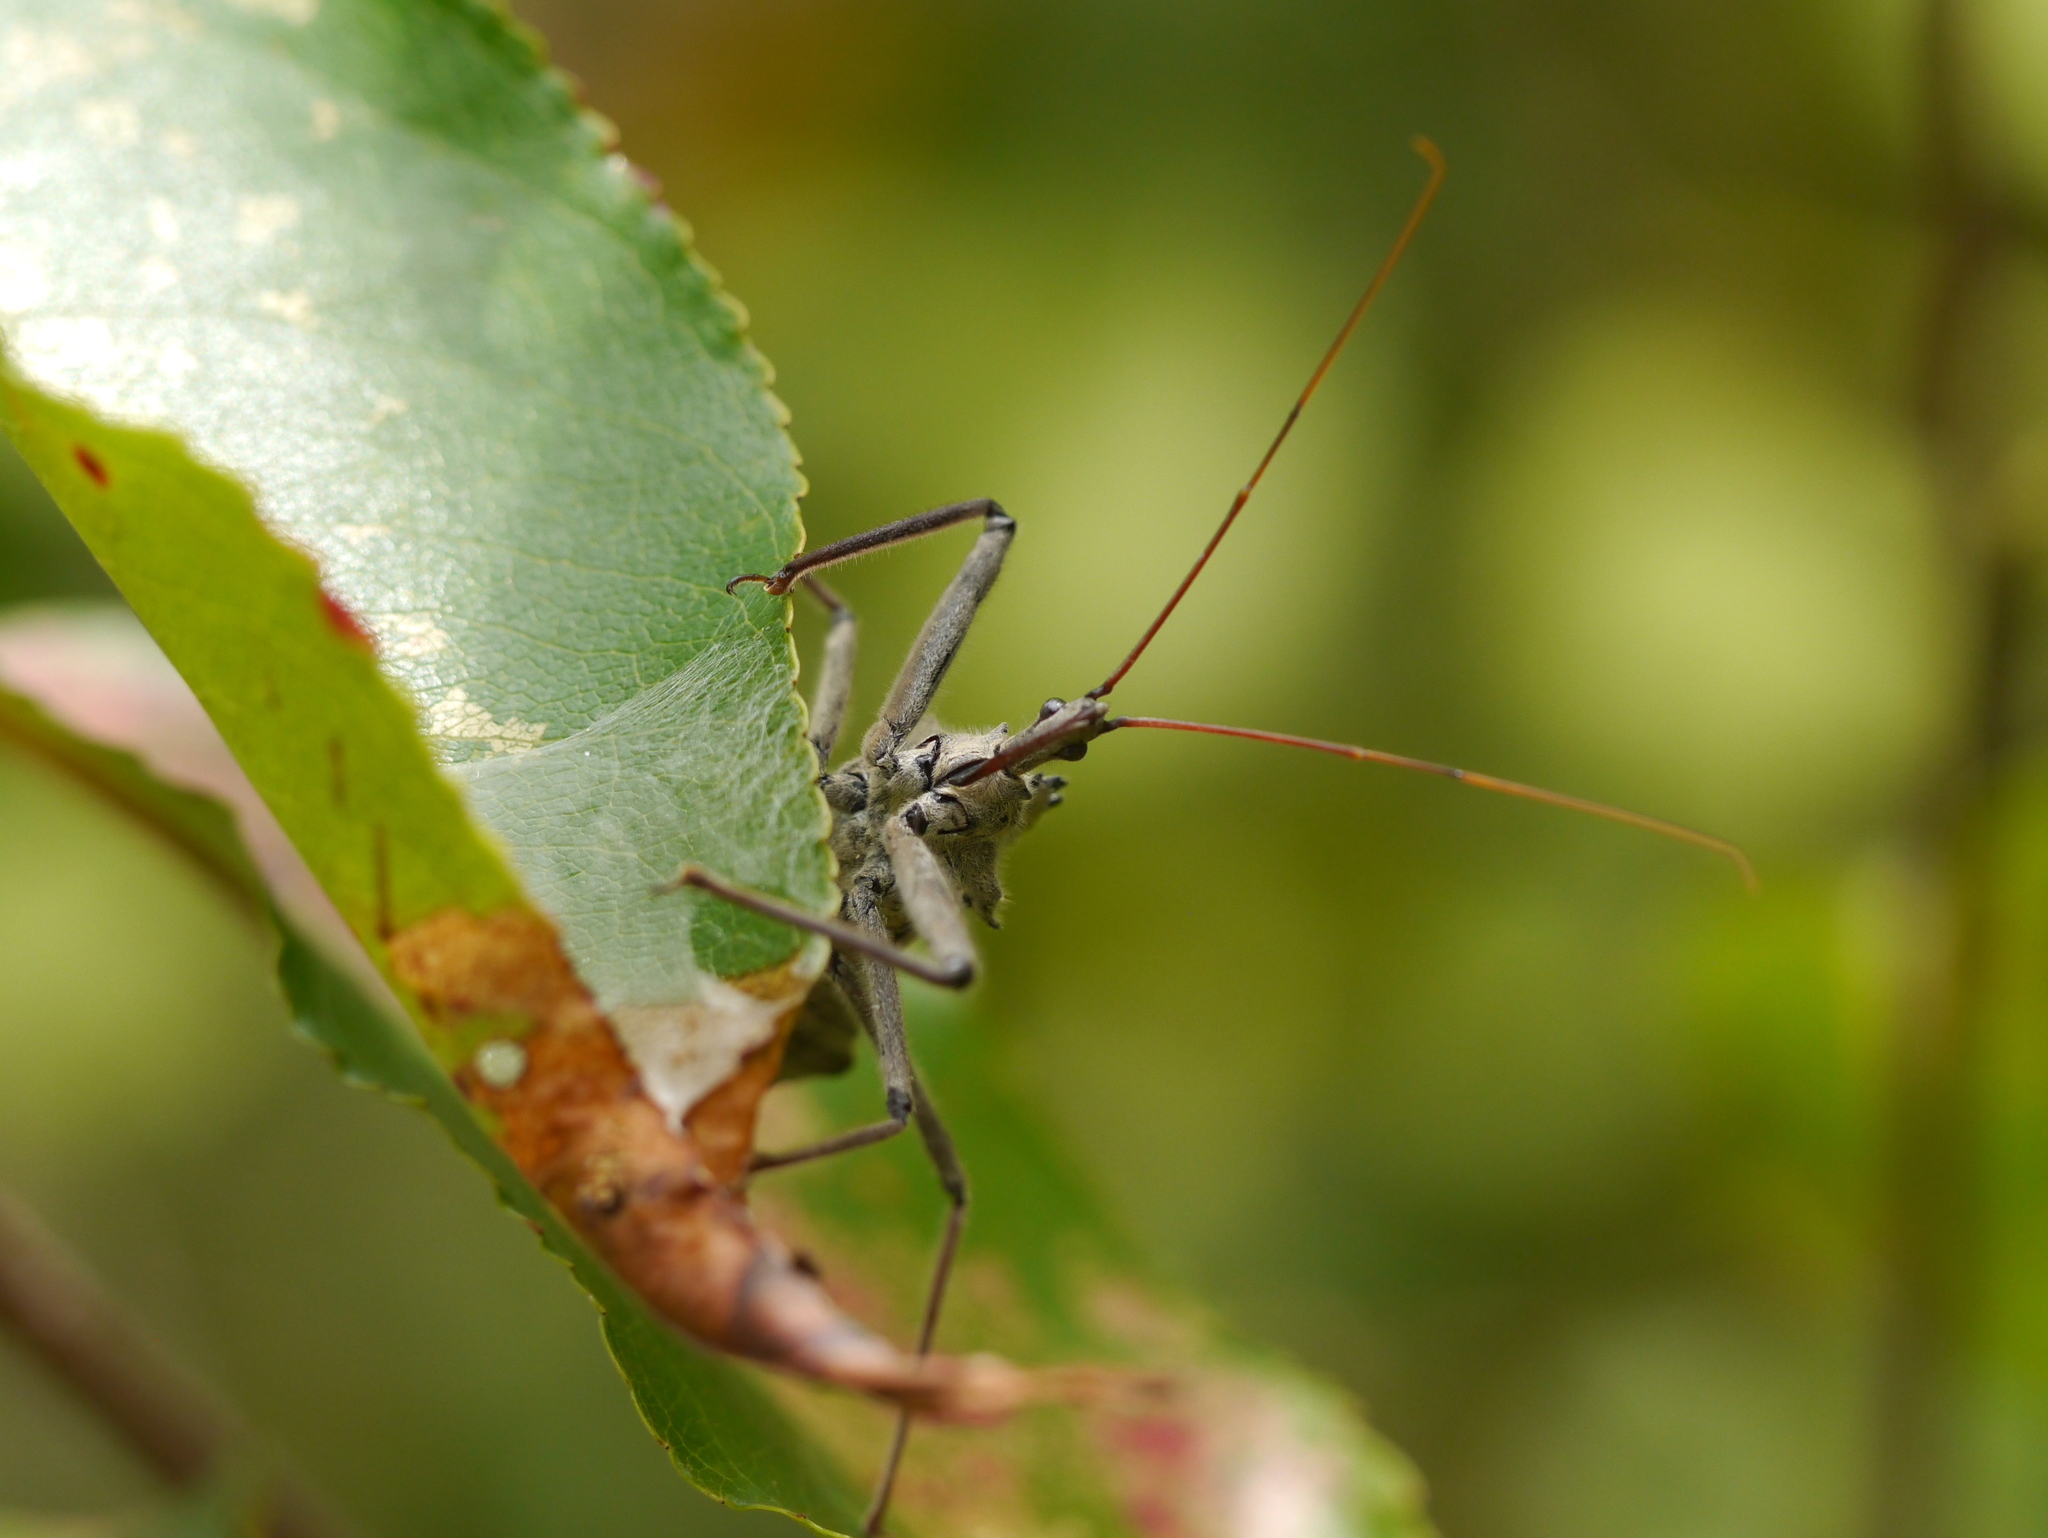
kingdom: Animalia
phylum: Arthropoda
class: Insecta
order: Hemiptera
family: Reduviidae
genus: Arilus
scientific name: Arilus cristatus
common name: North american wheel bug
